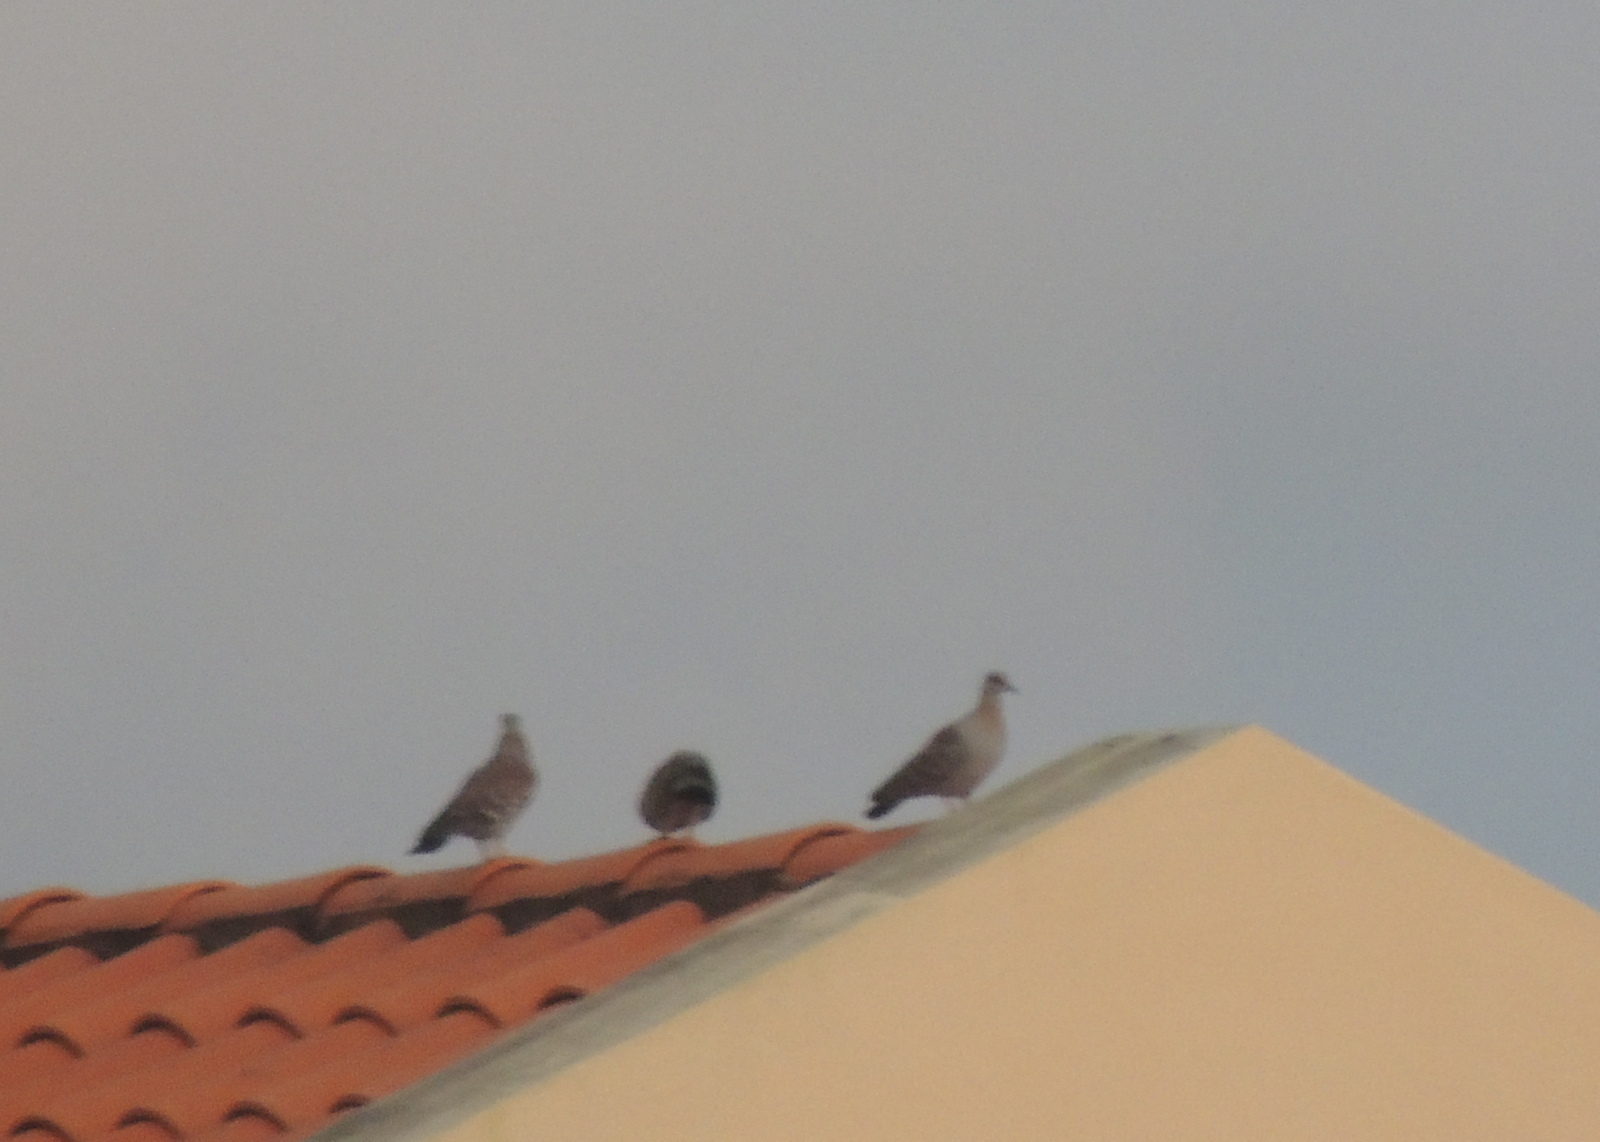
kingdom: Animalia
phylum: Chordata
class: Aves
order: Columbiformes
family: Columbidae
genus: Columba
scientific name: Columba guinea
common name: Speckled pigeon
